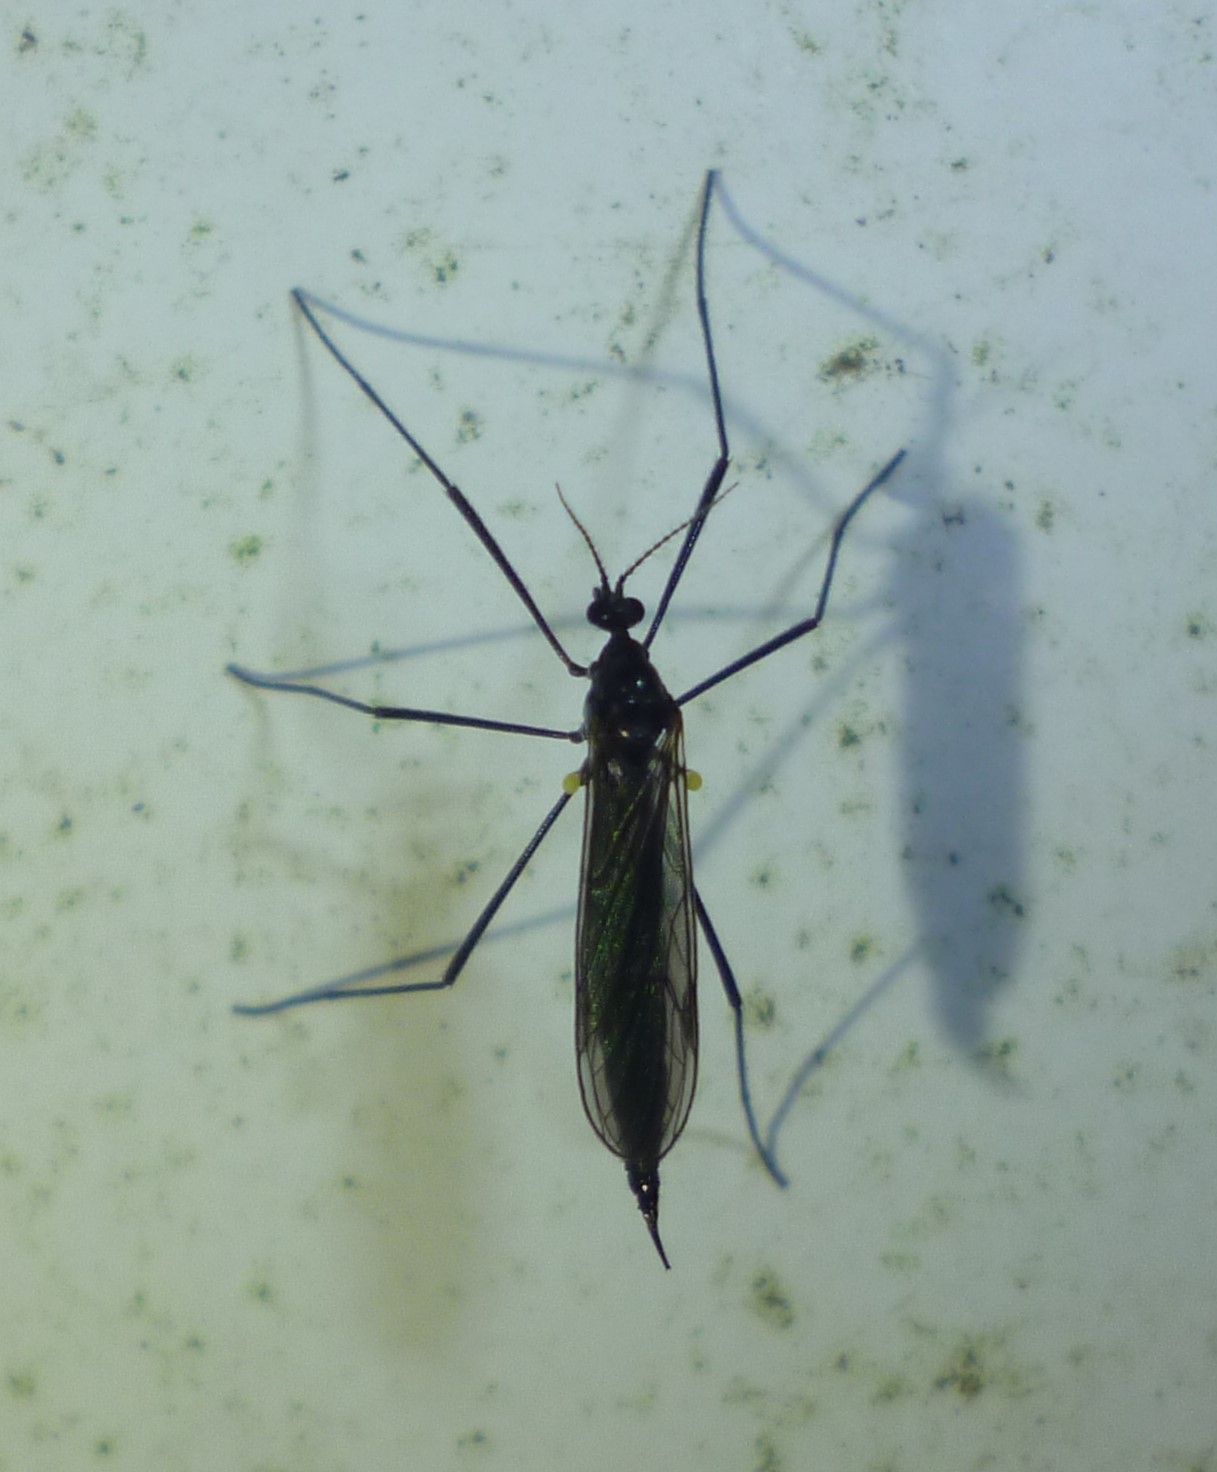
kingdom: Animalia
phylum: Arthropoda
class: Insecta
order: Diptera
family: Limoniidae
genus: Gnophomyia
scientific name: Gnophomyia tristissima
